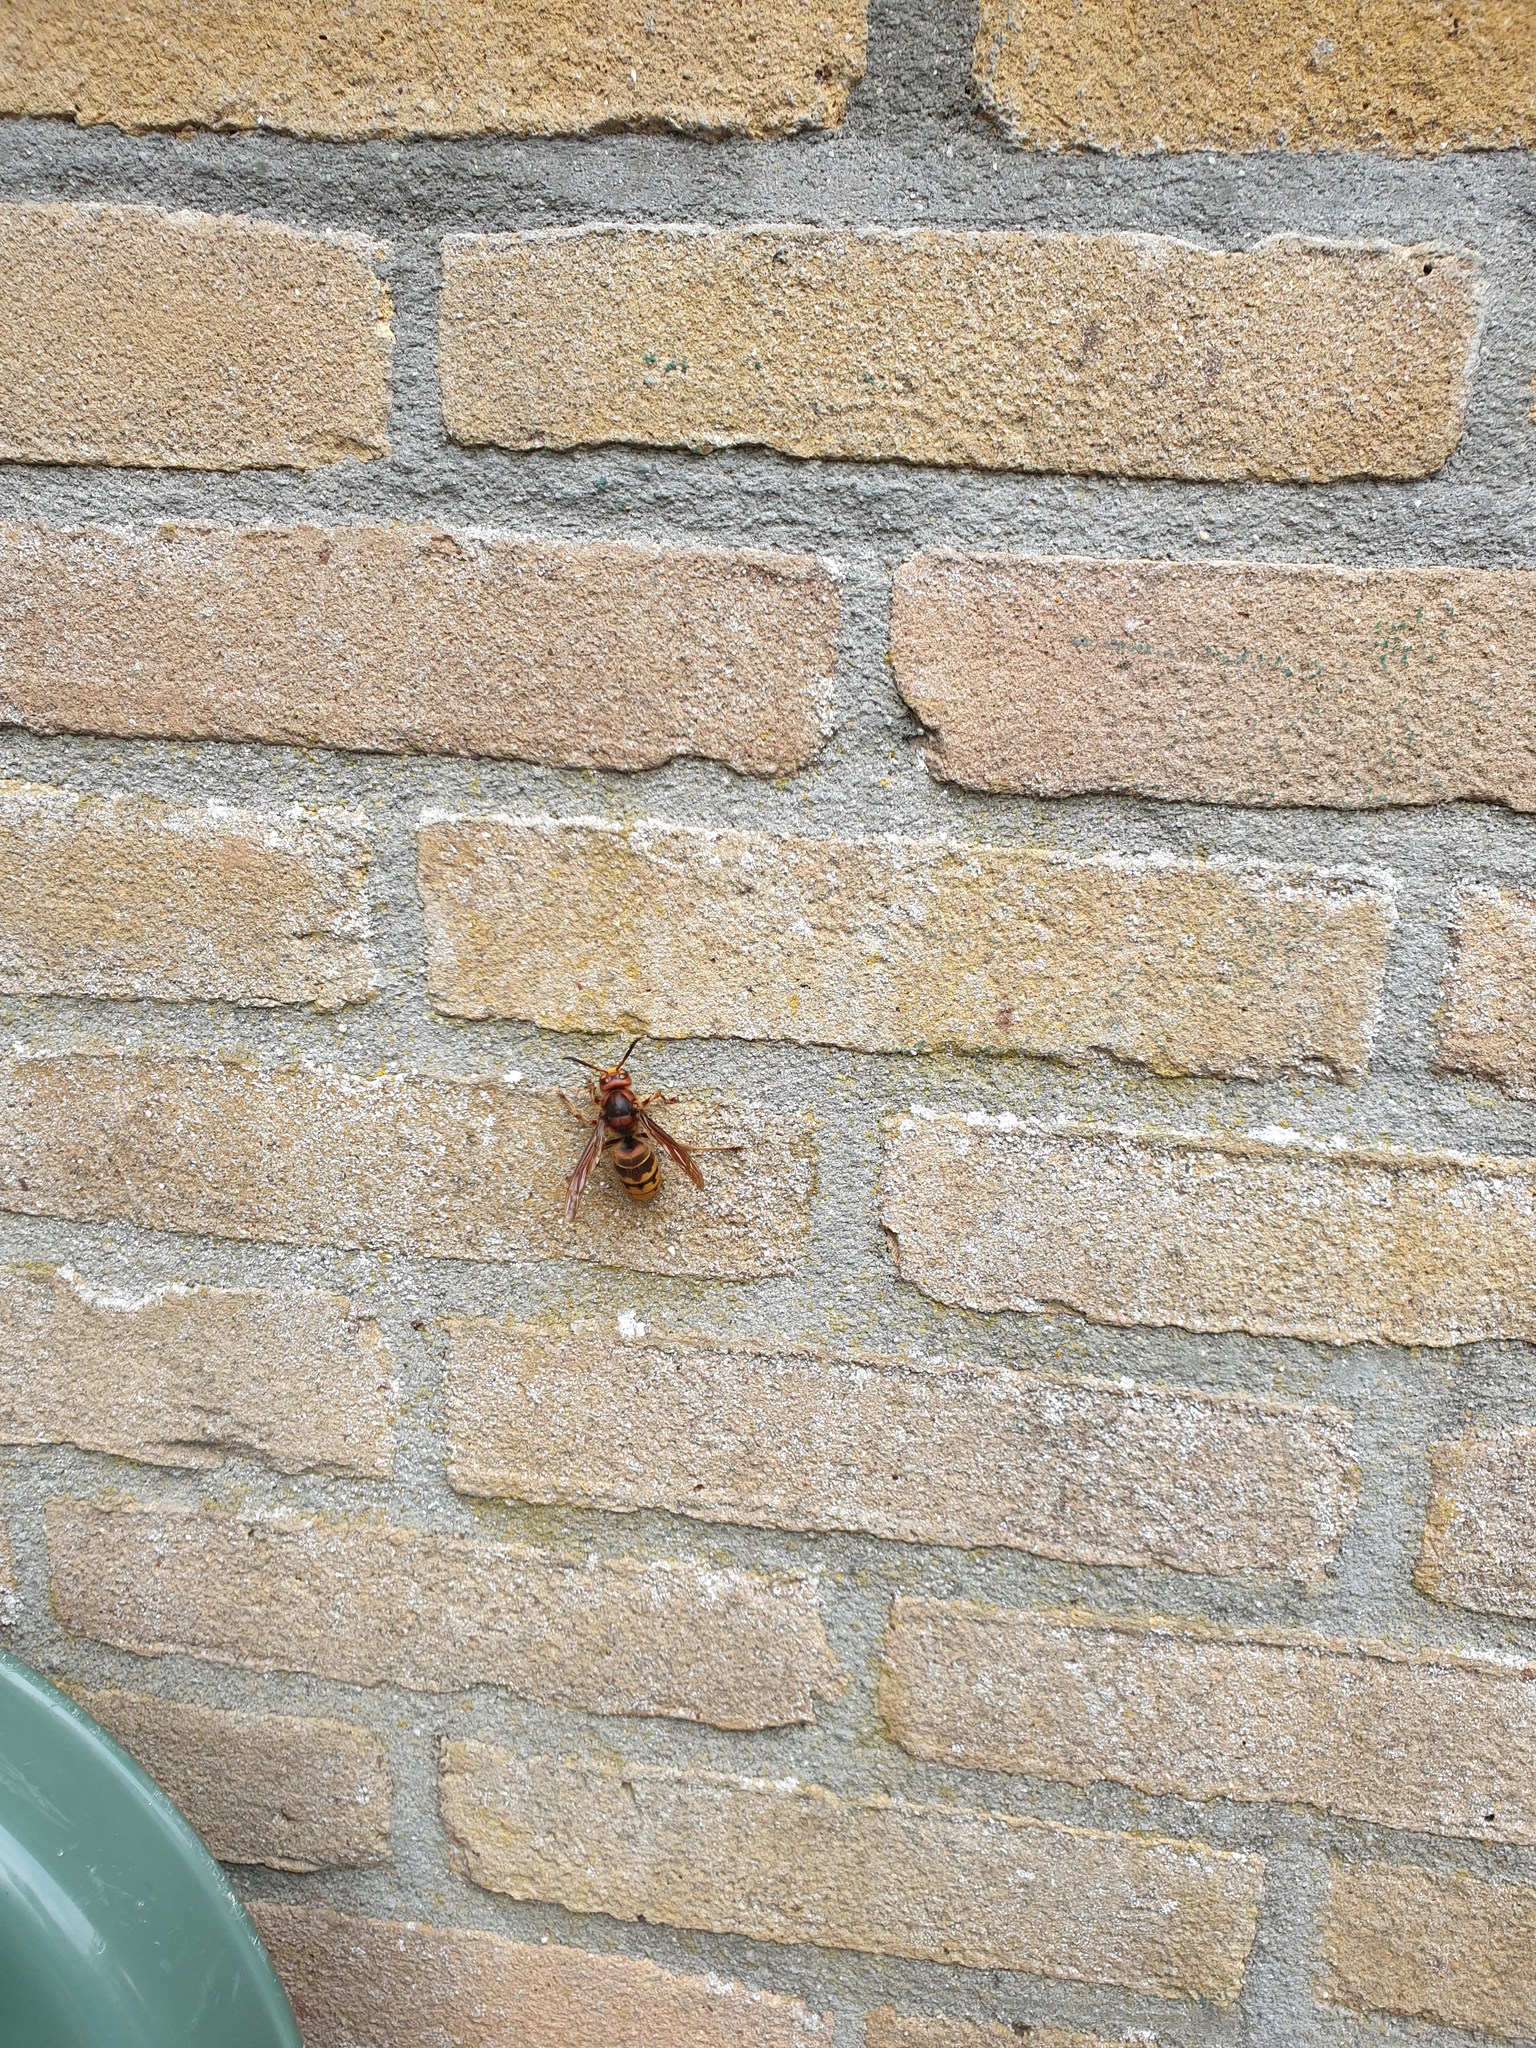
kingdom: Animalia
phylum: Arthropoda
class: Insecta
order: Hymenoptera
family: Vespidae
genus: Vespa
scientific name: Vespa crabro
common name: Hornet
